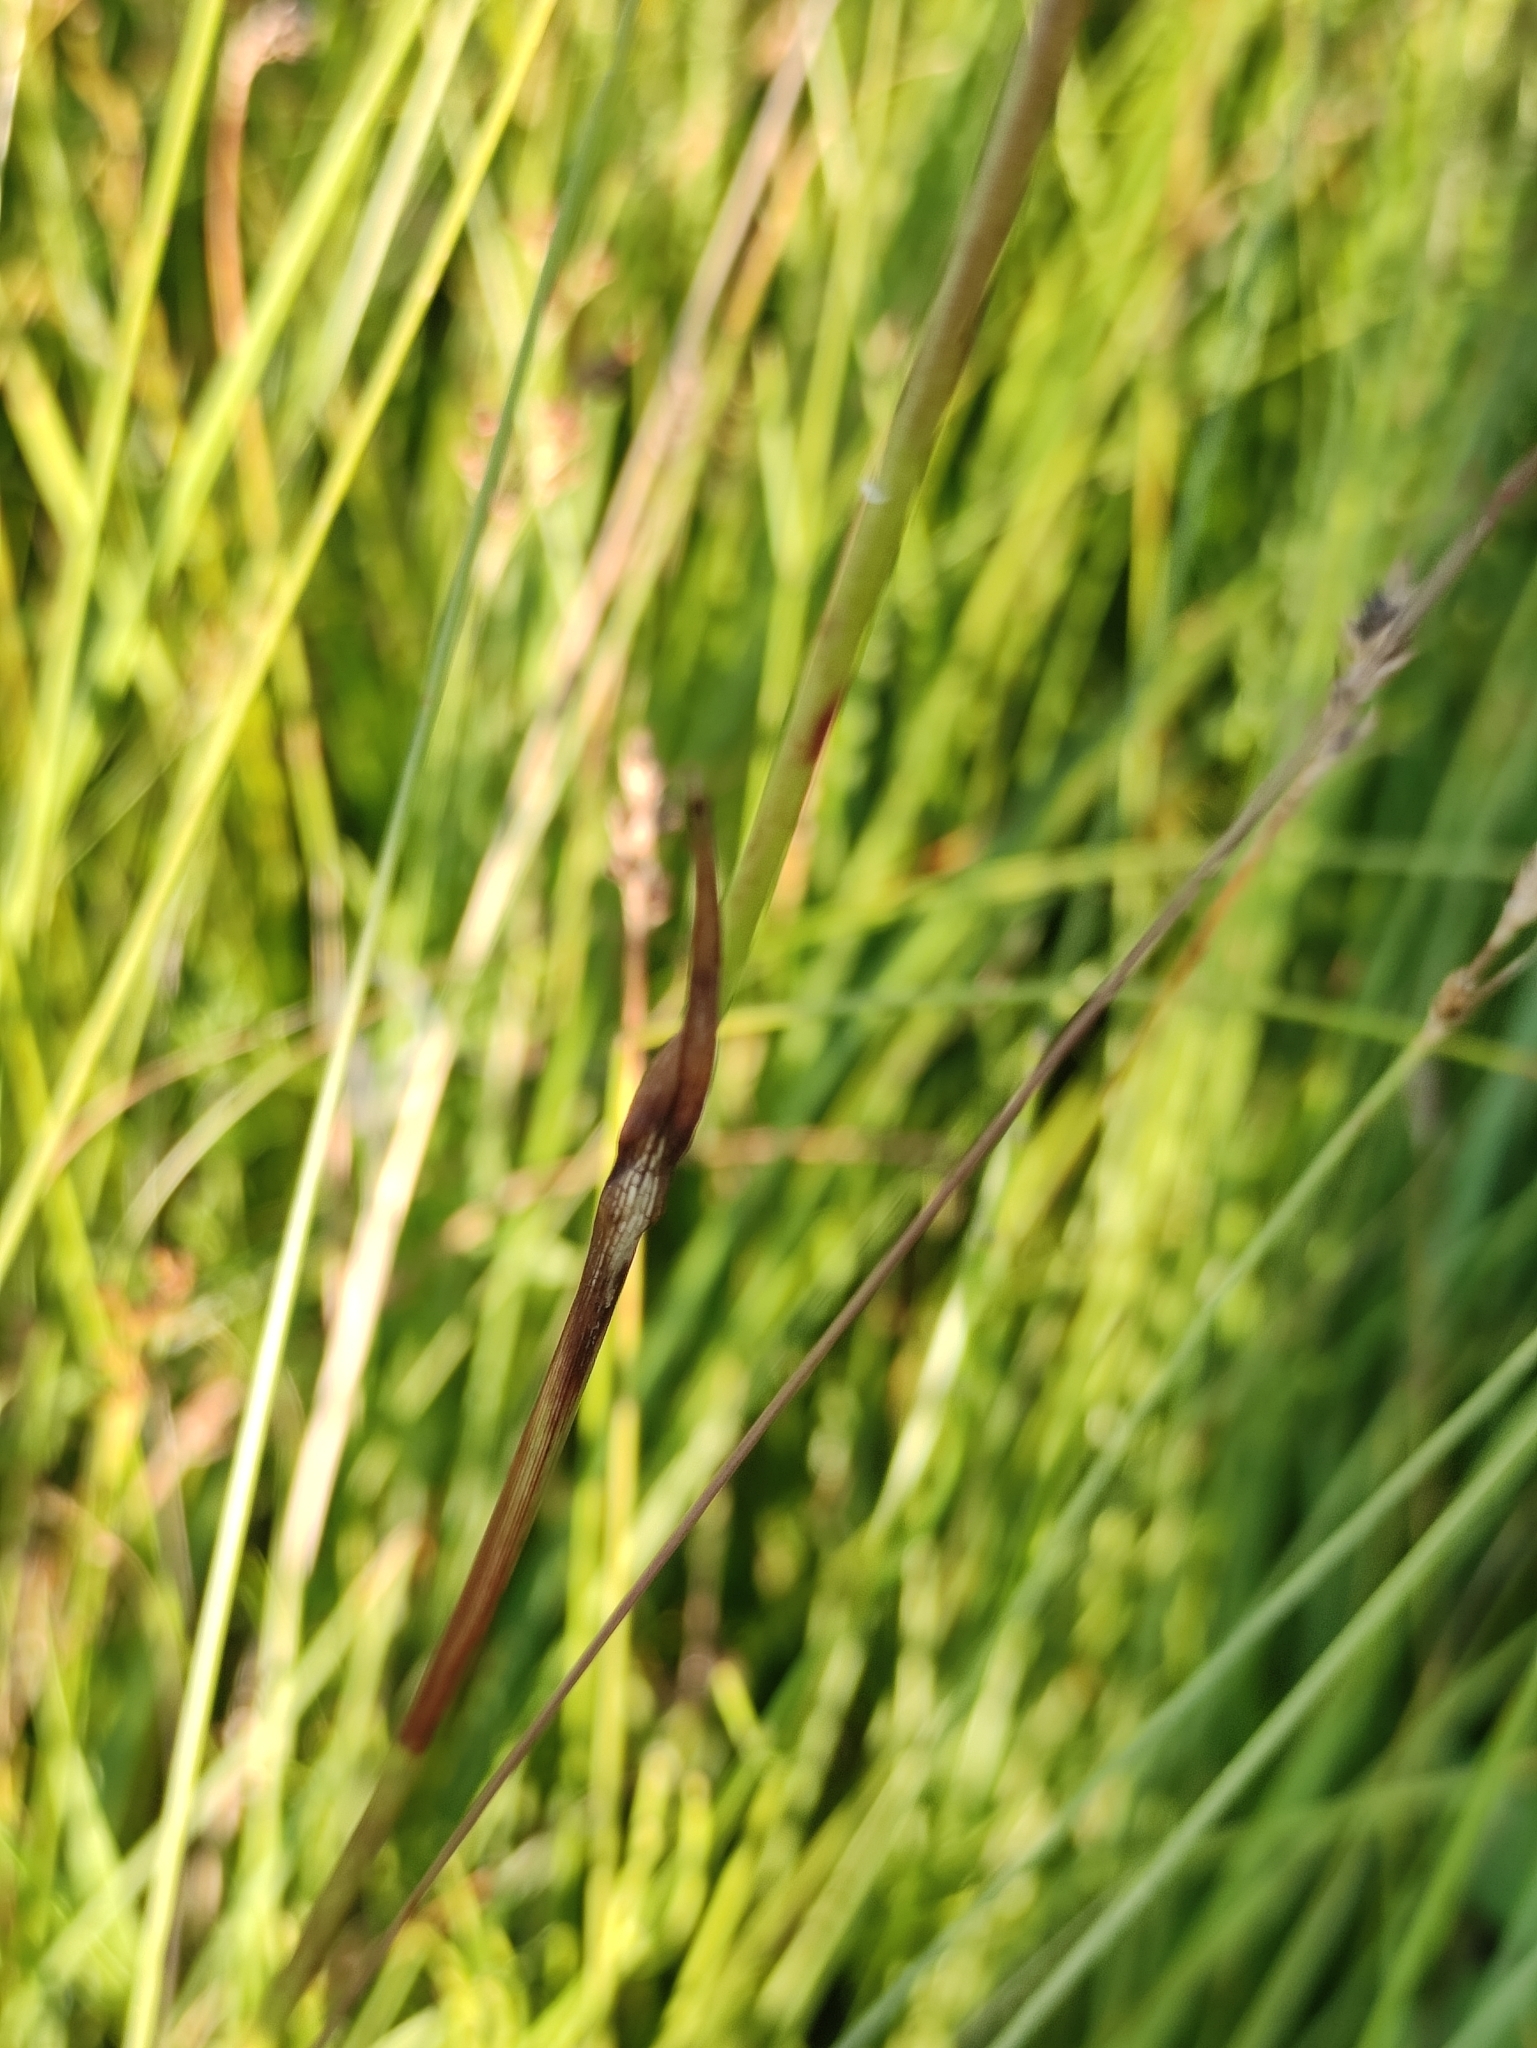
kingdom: Plantae
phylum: Tracheophyta
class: Liliopsida
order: Poales
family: Cyperaceae
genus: Eriophorum
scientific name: Eriophorum angustifolium
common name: Common cottongrass
